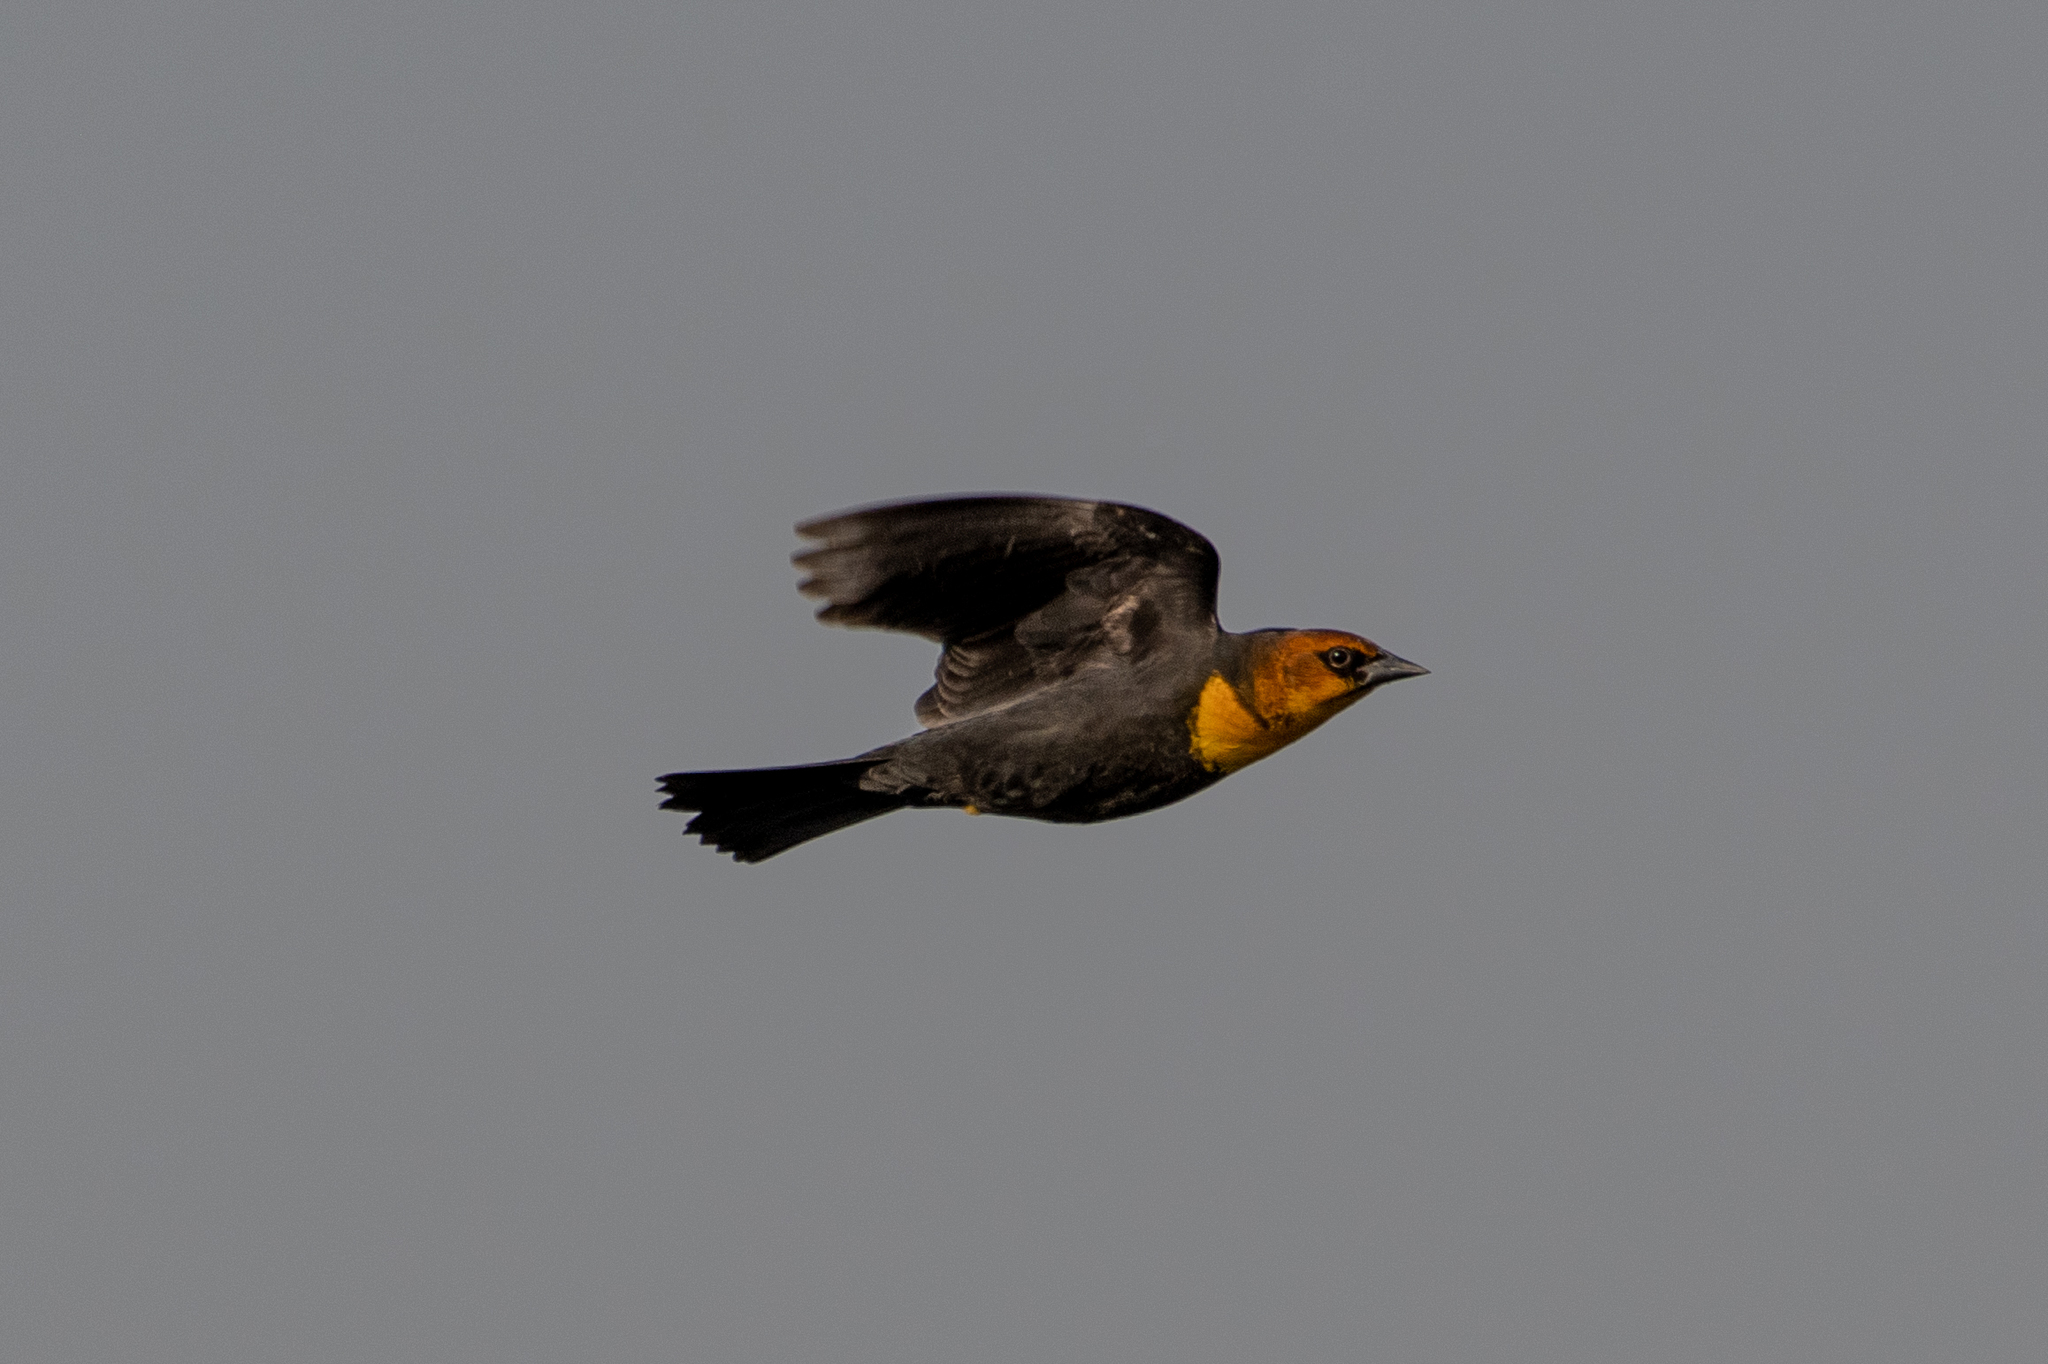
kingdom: Animalia
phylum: Chordata
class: Aves
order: Passeriformes
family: Icteridae
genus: Xanthocephalus
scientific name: Xanthocephalus xanthocephalus
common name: Yellow-headed blackbird
